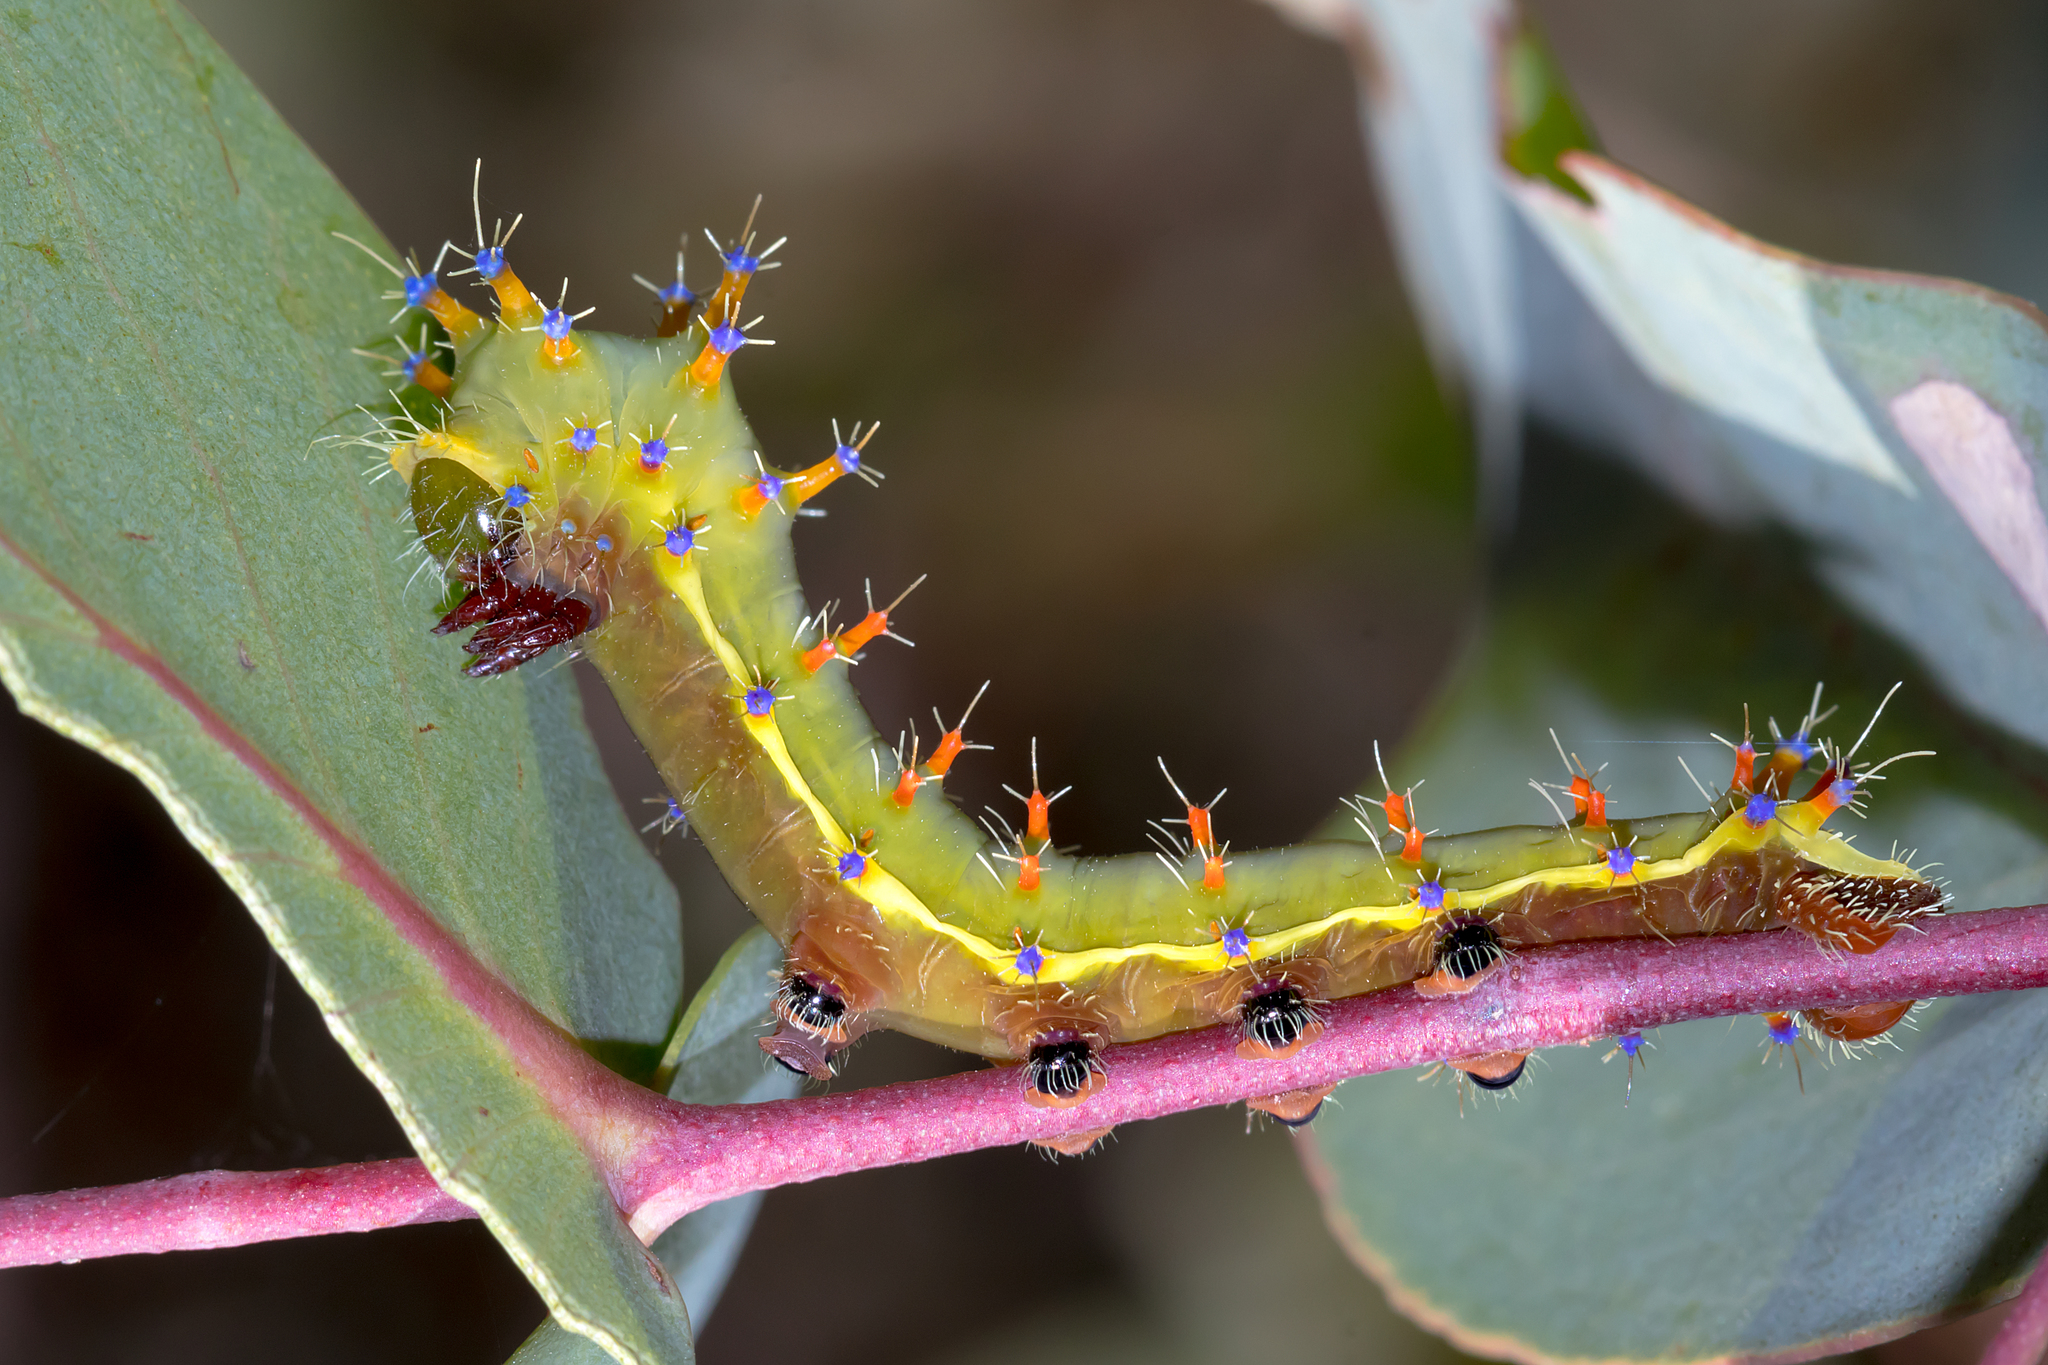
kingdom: Animalia
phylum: Arthropoda
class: Insecta
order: Lepidoptera
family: Saturniidae
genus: Opodiphthera
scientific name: Opodiphthera
